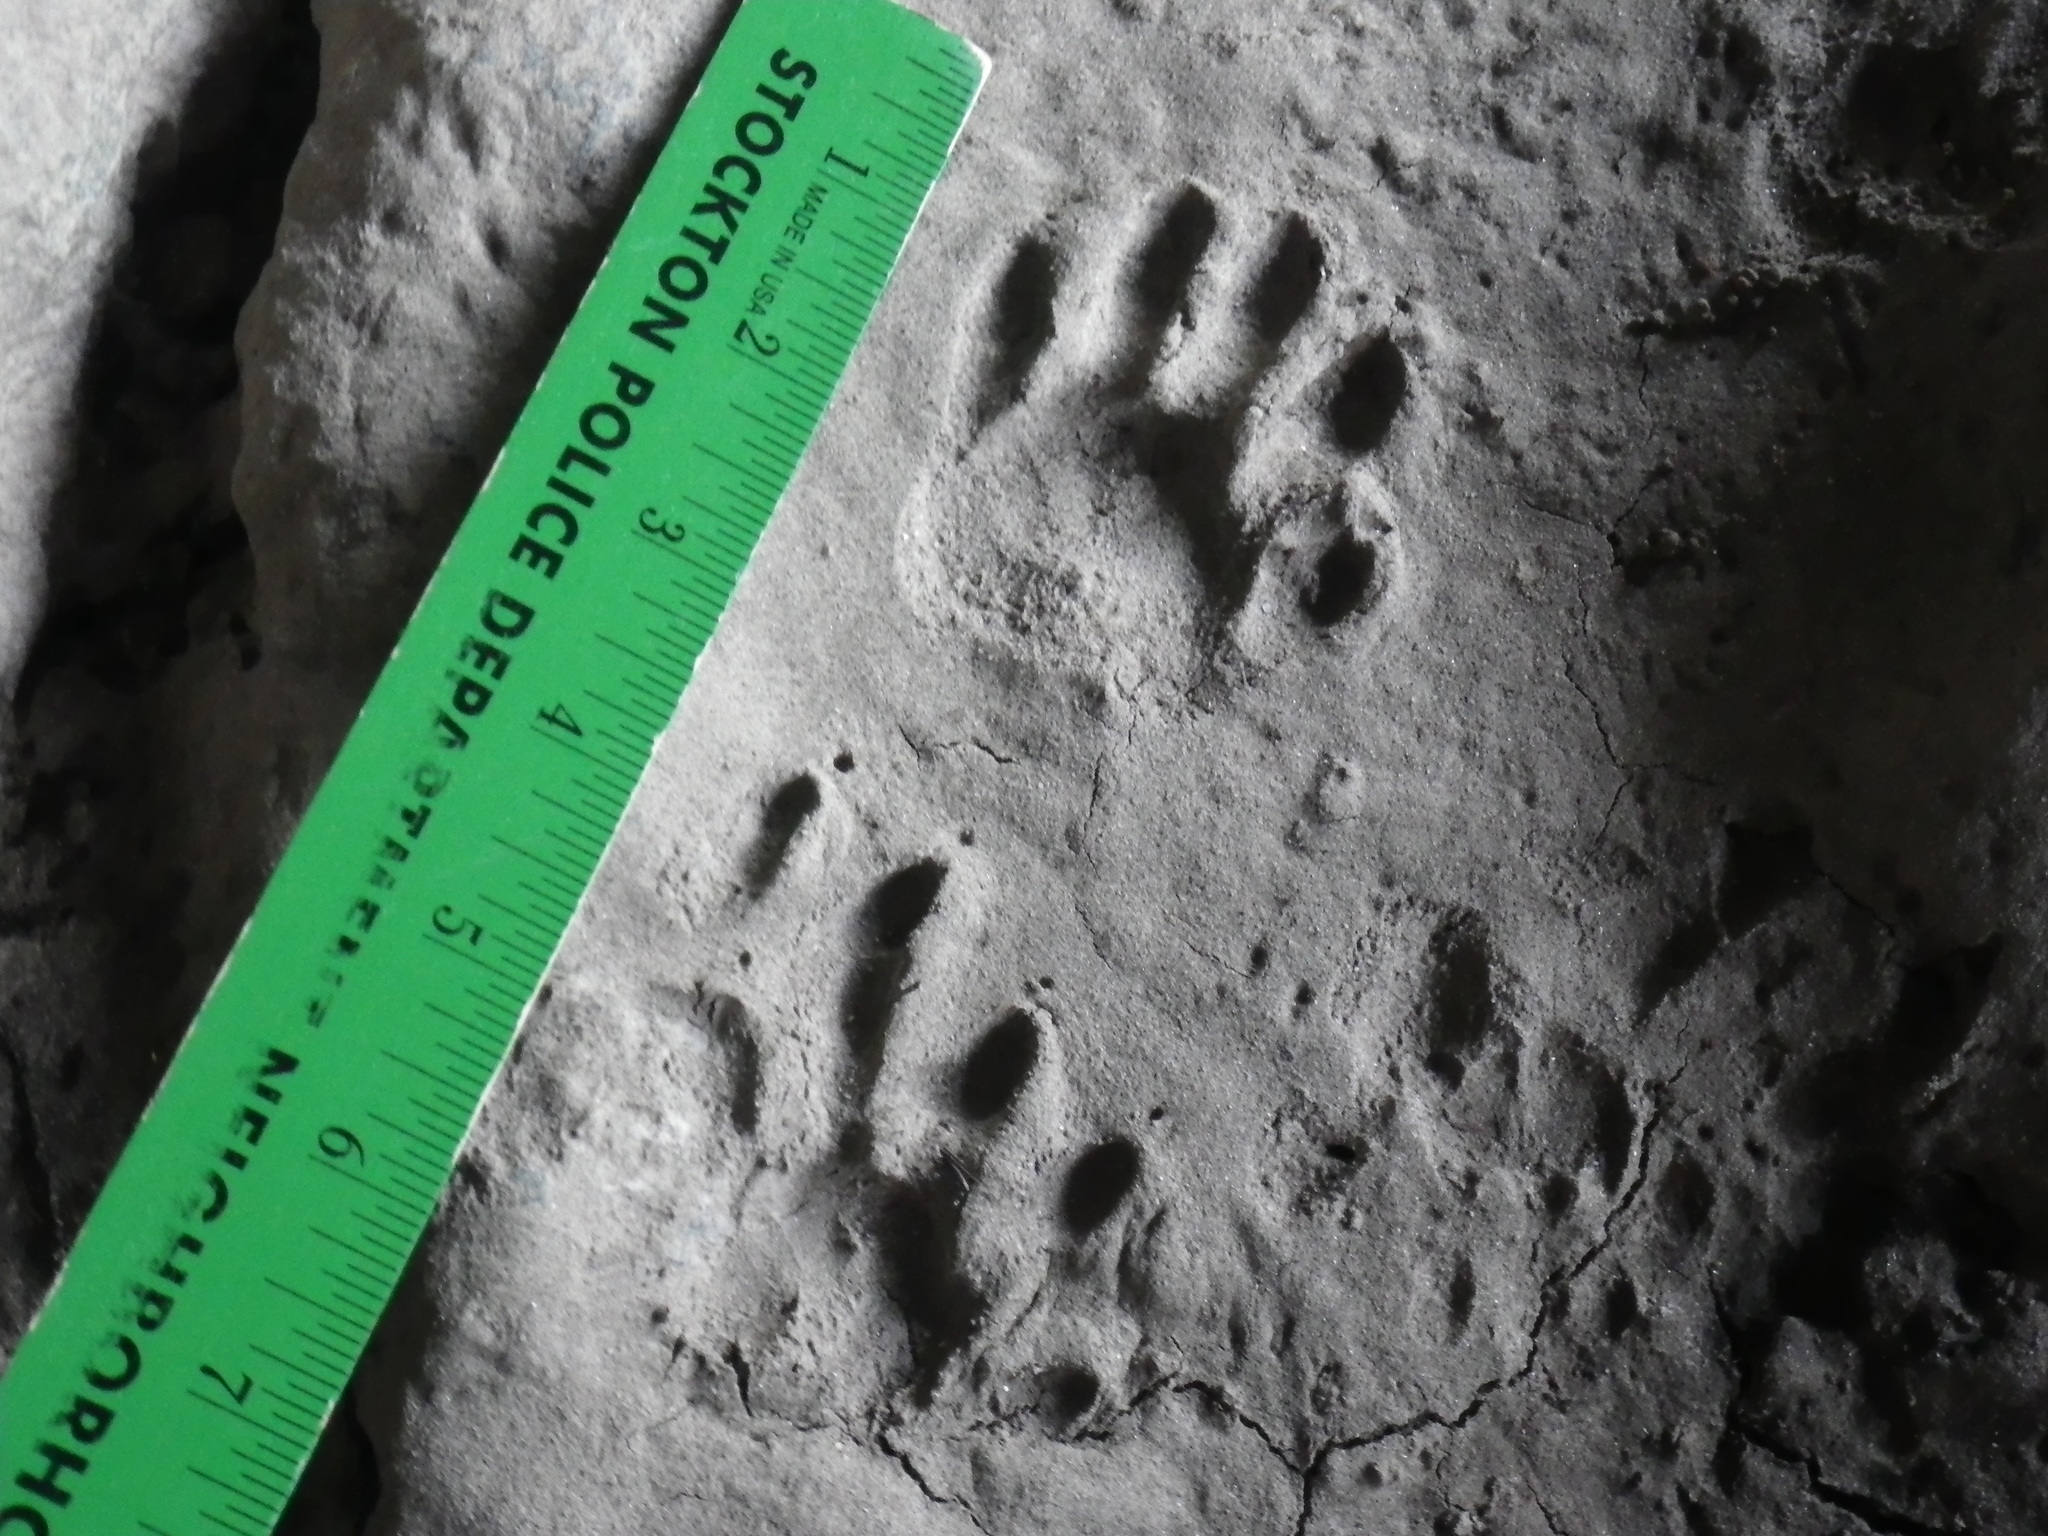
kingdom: Animalia
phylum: Chordata
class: Mammalia
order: Carnivora
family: Procyonidae
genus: Procyon
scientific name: Procyon lotor
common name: Raccoon
